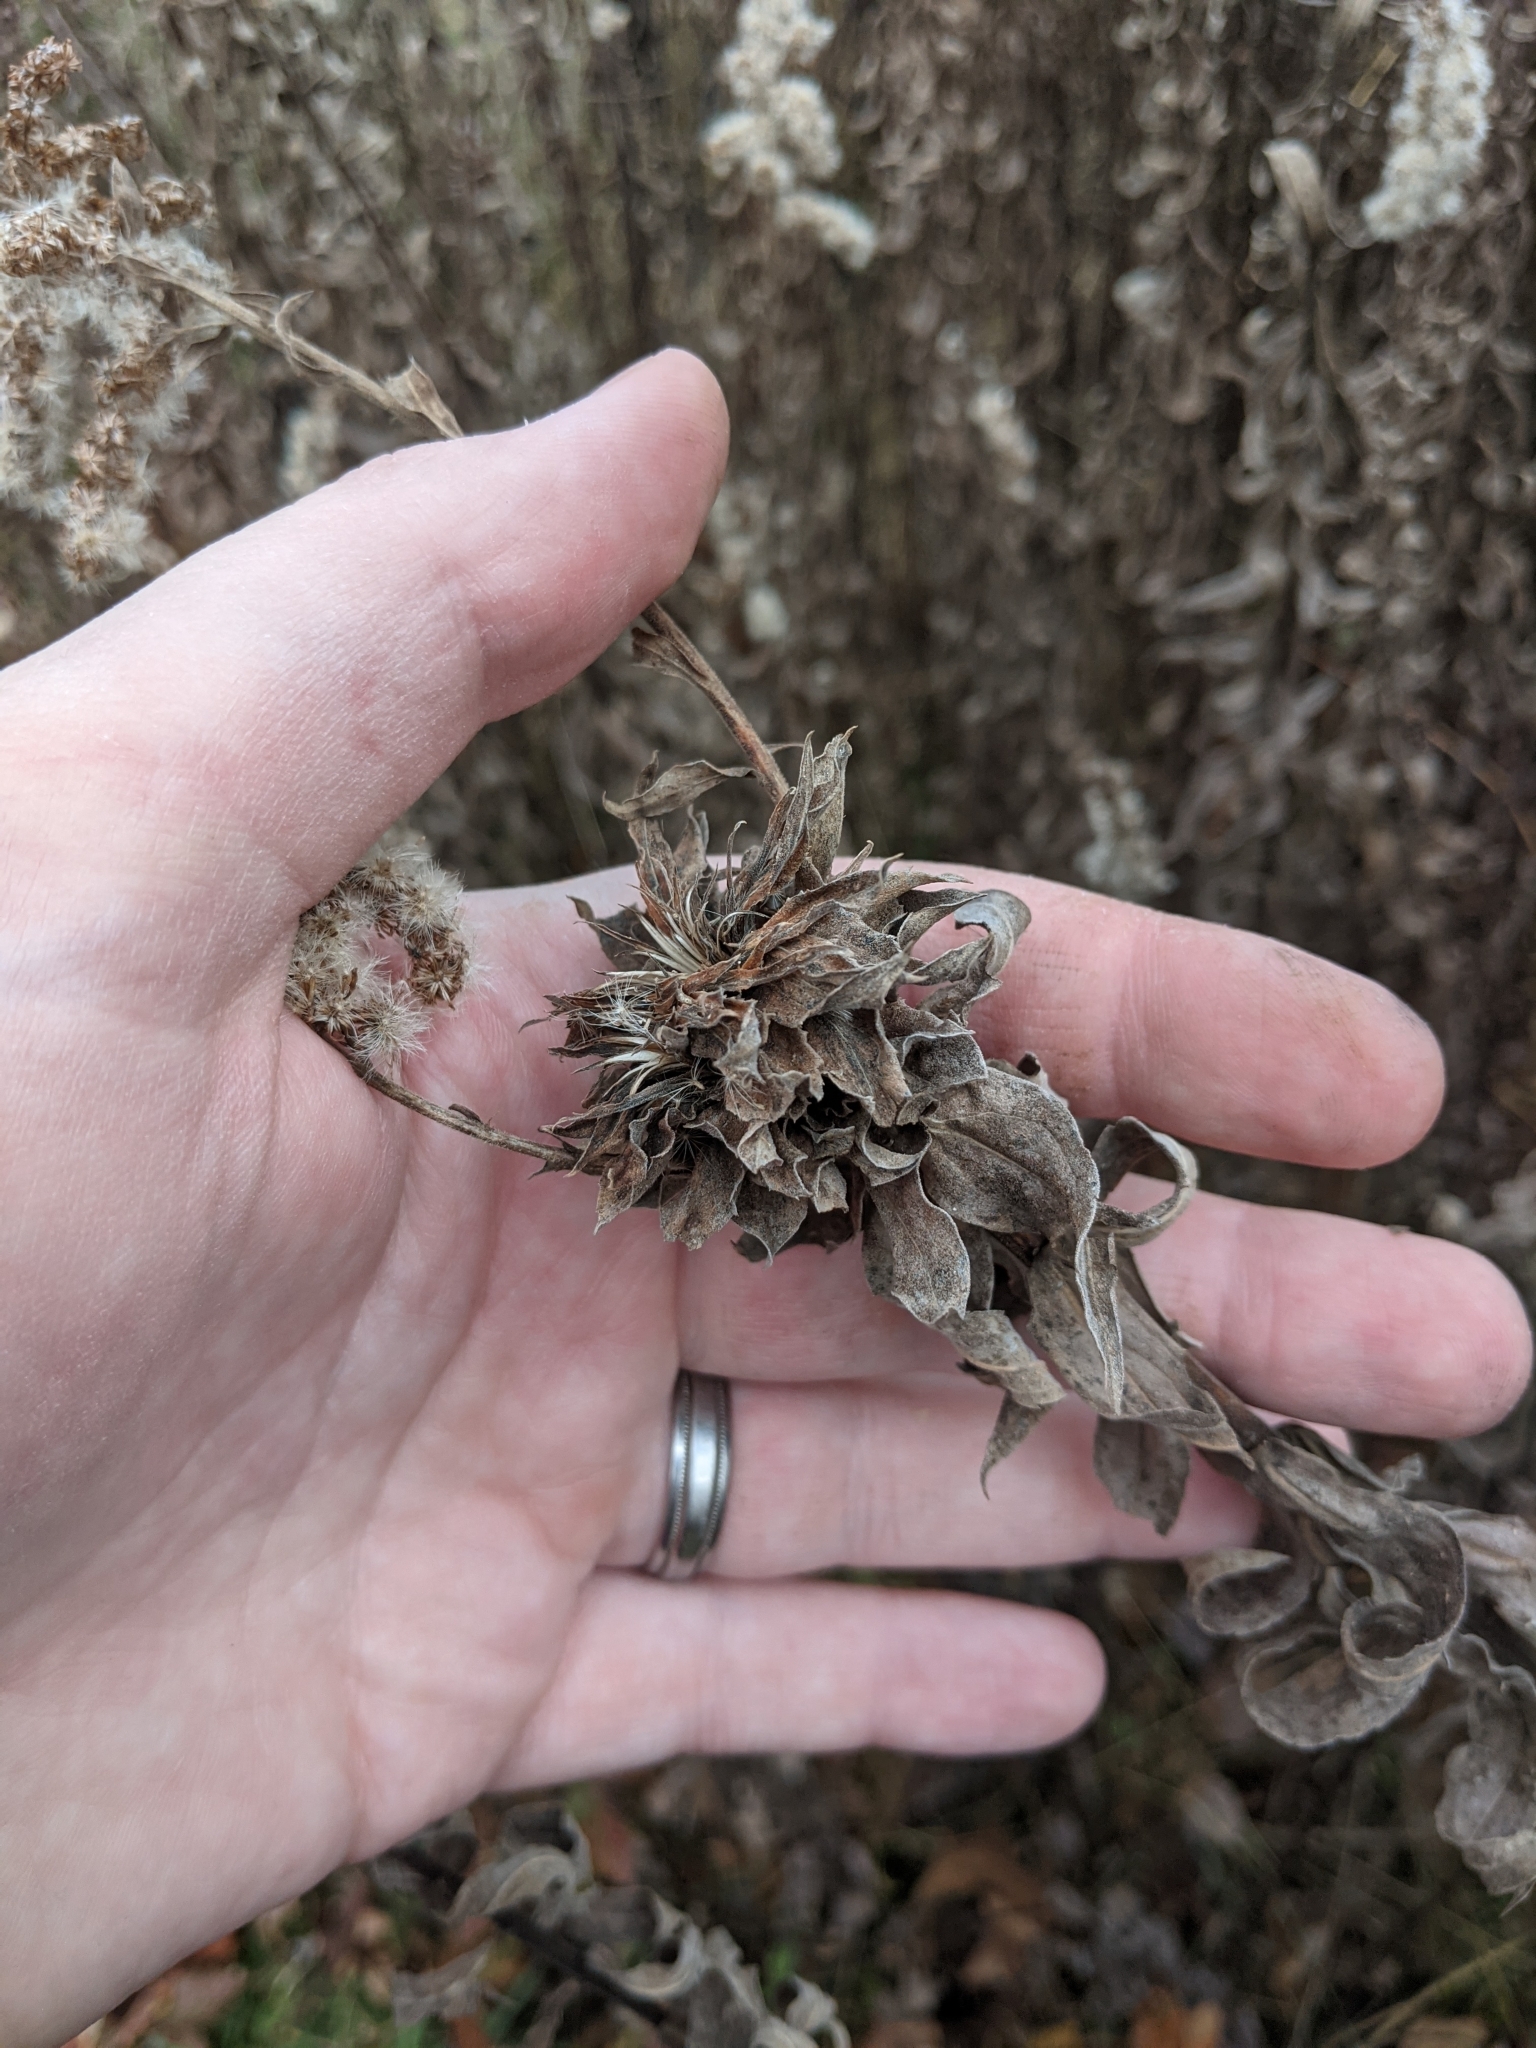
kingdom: Animalia
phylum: Arthropoda
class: Insecta
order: Diptera
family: Cecidomyiidae
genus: Rhopalomyia
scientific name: Rhopalomyia solidaginis
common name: Goldenrod bunch gall midge
